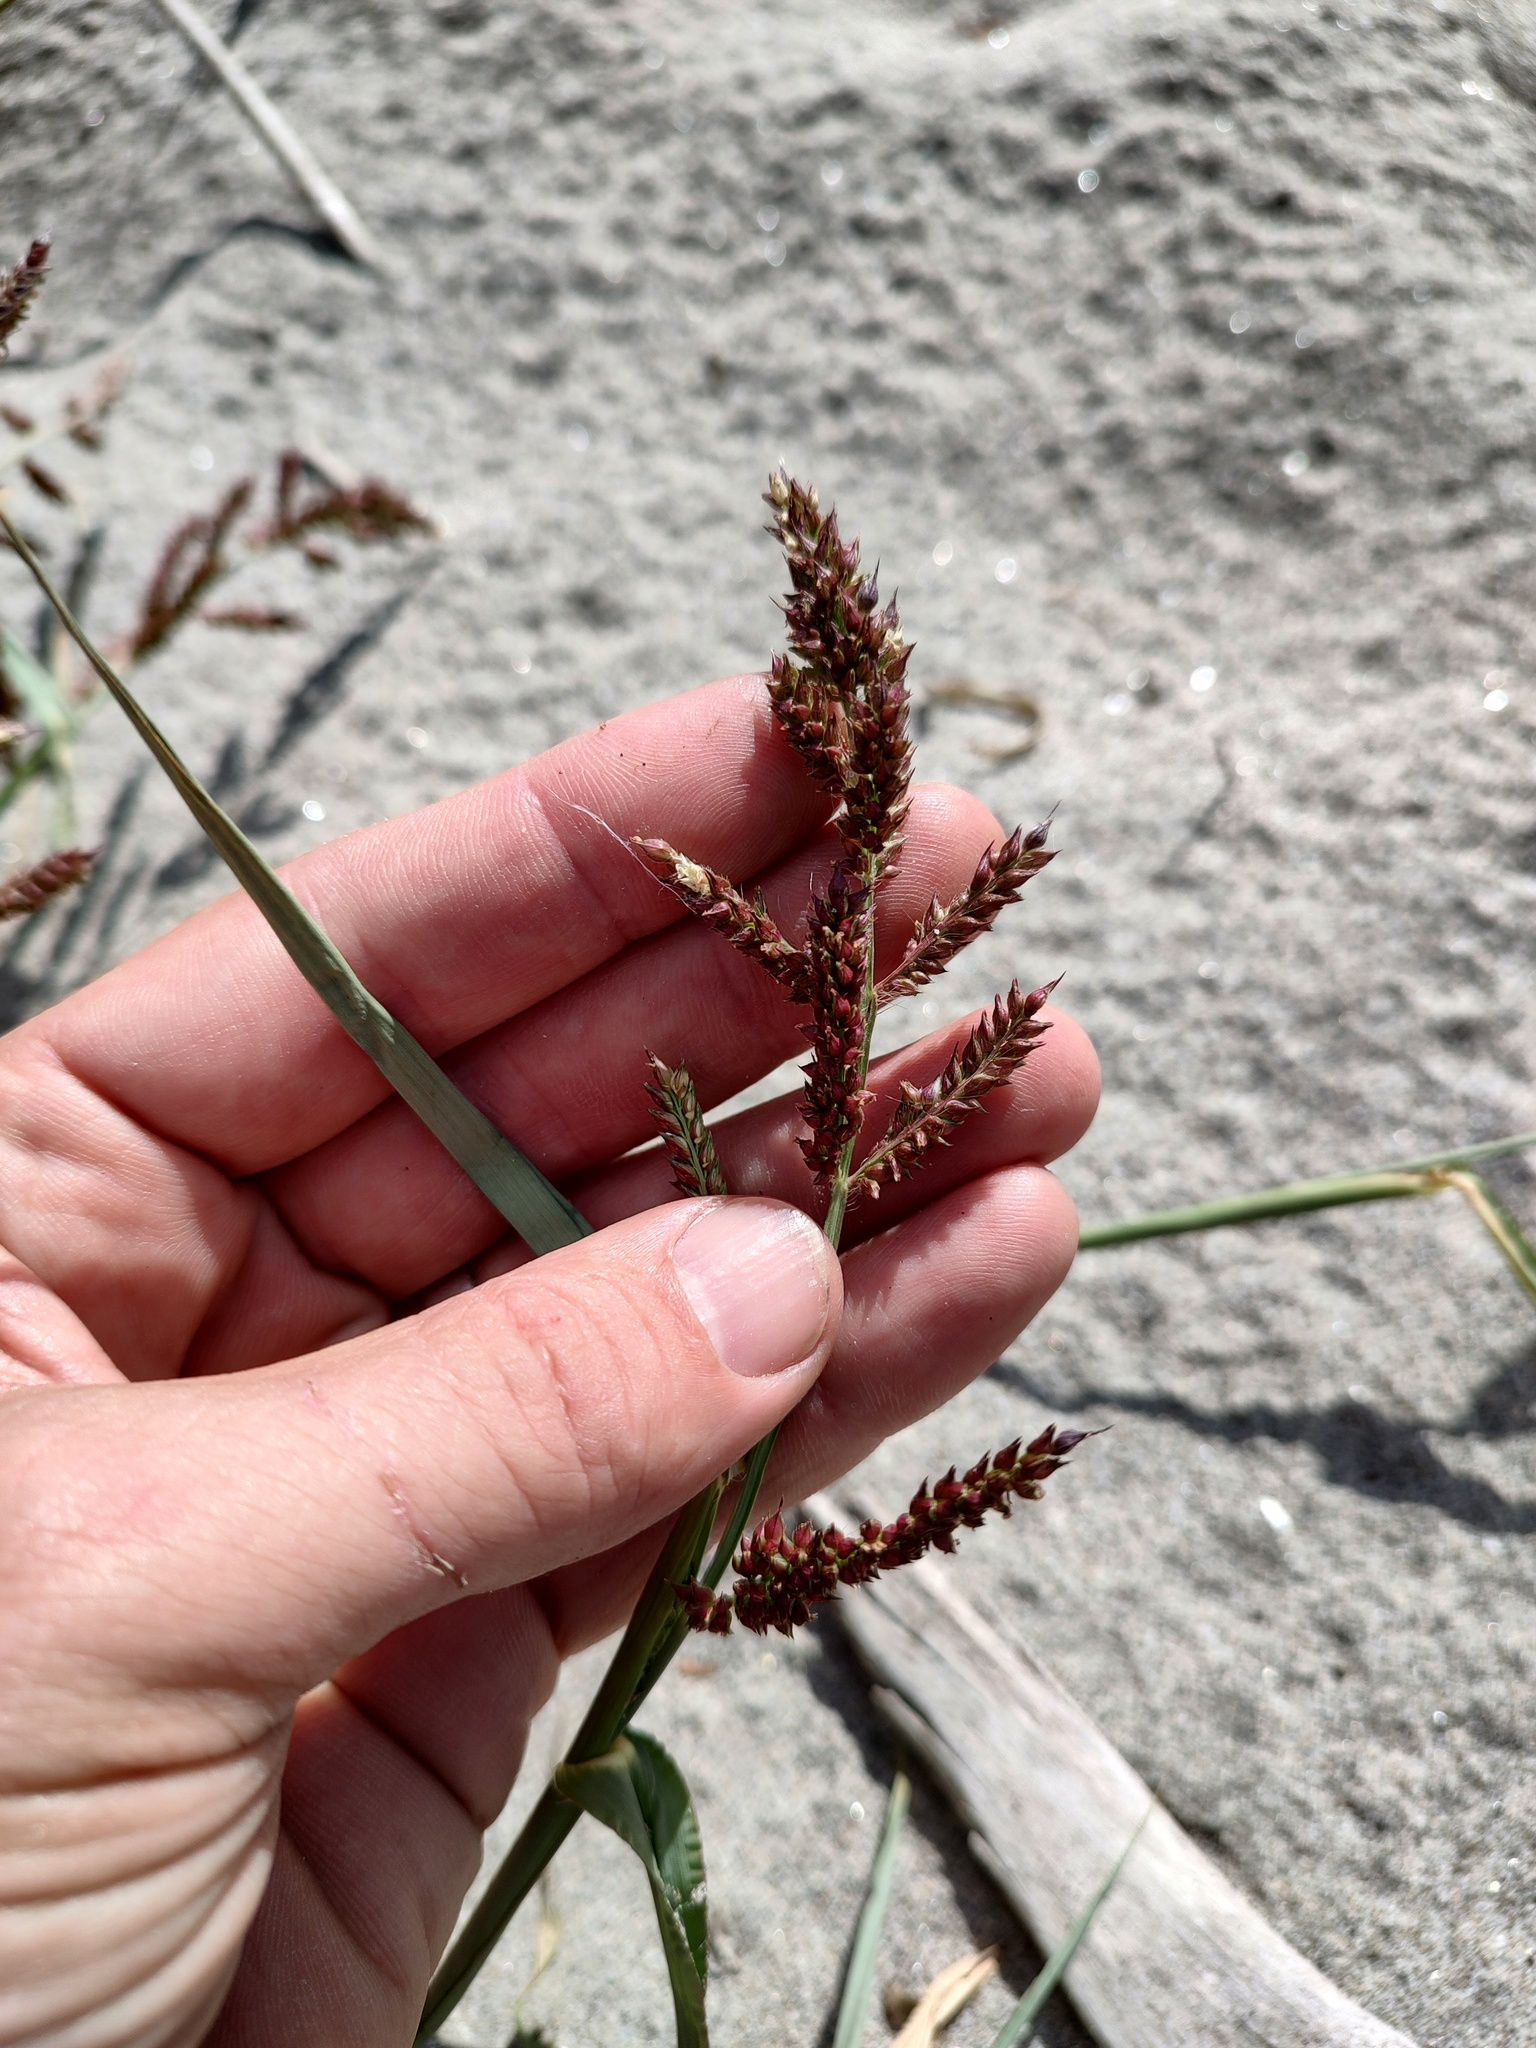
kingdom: Plantae
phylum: Tracheophyta
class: Liliopsida
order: Poales
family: Poaceae
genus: Echinochloa
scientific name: Echinochloa crus-galli
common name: Cockspur
